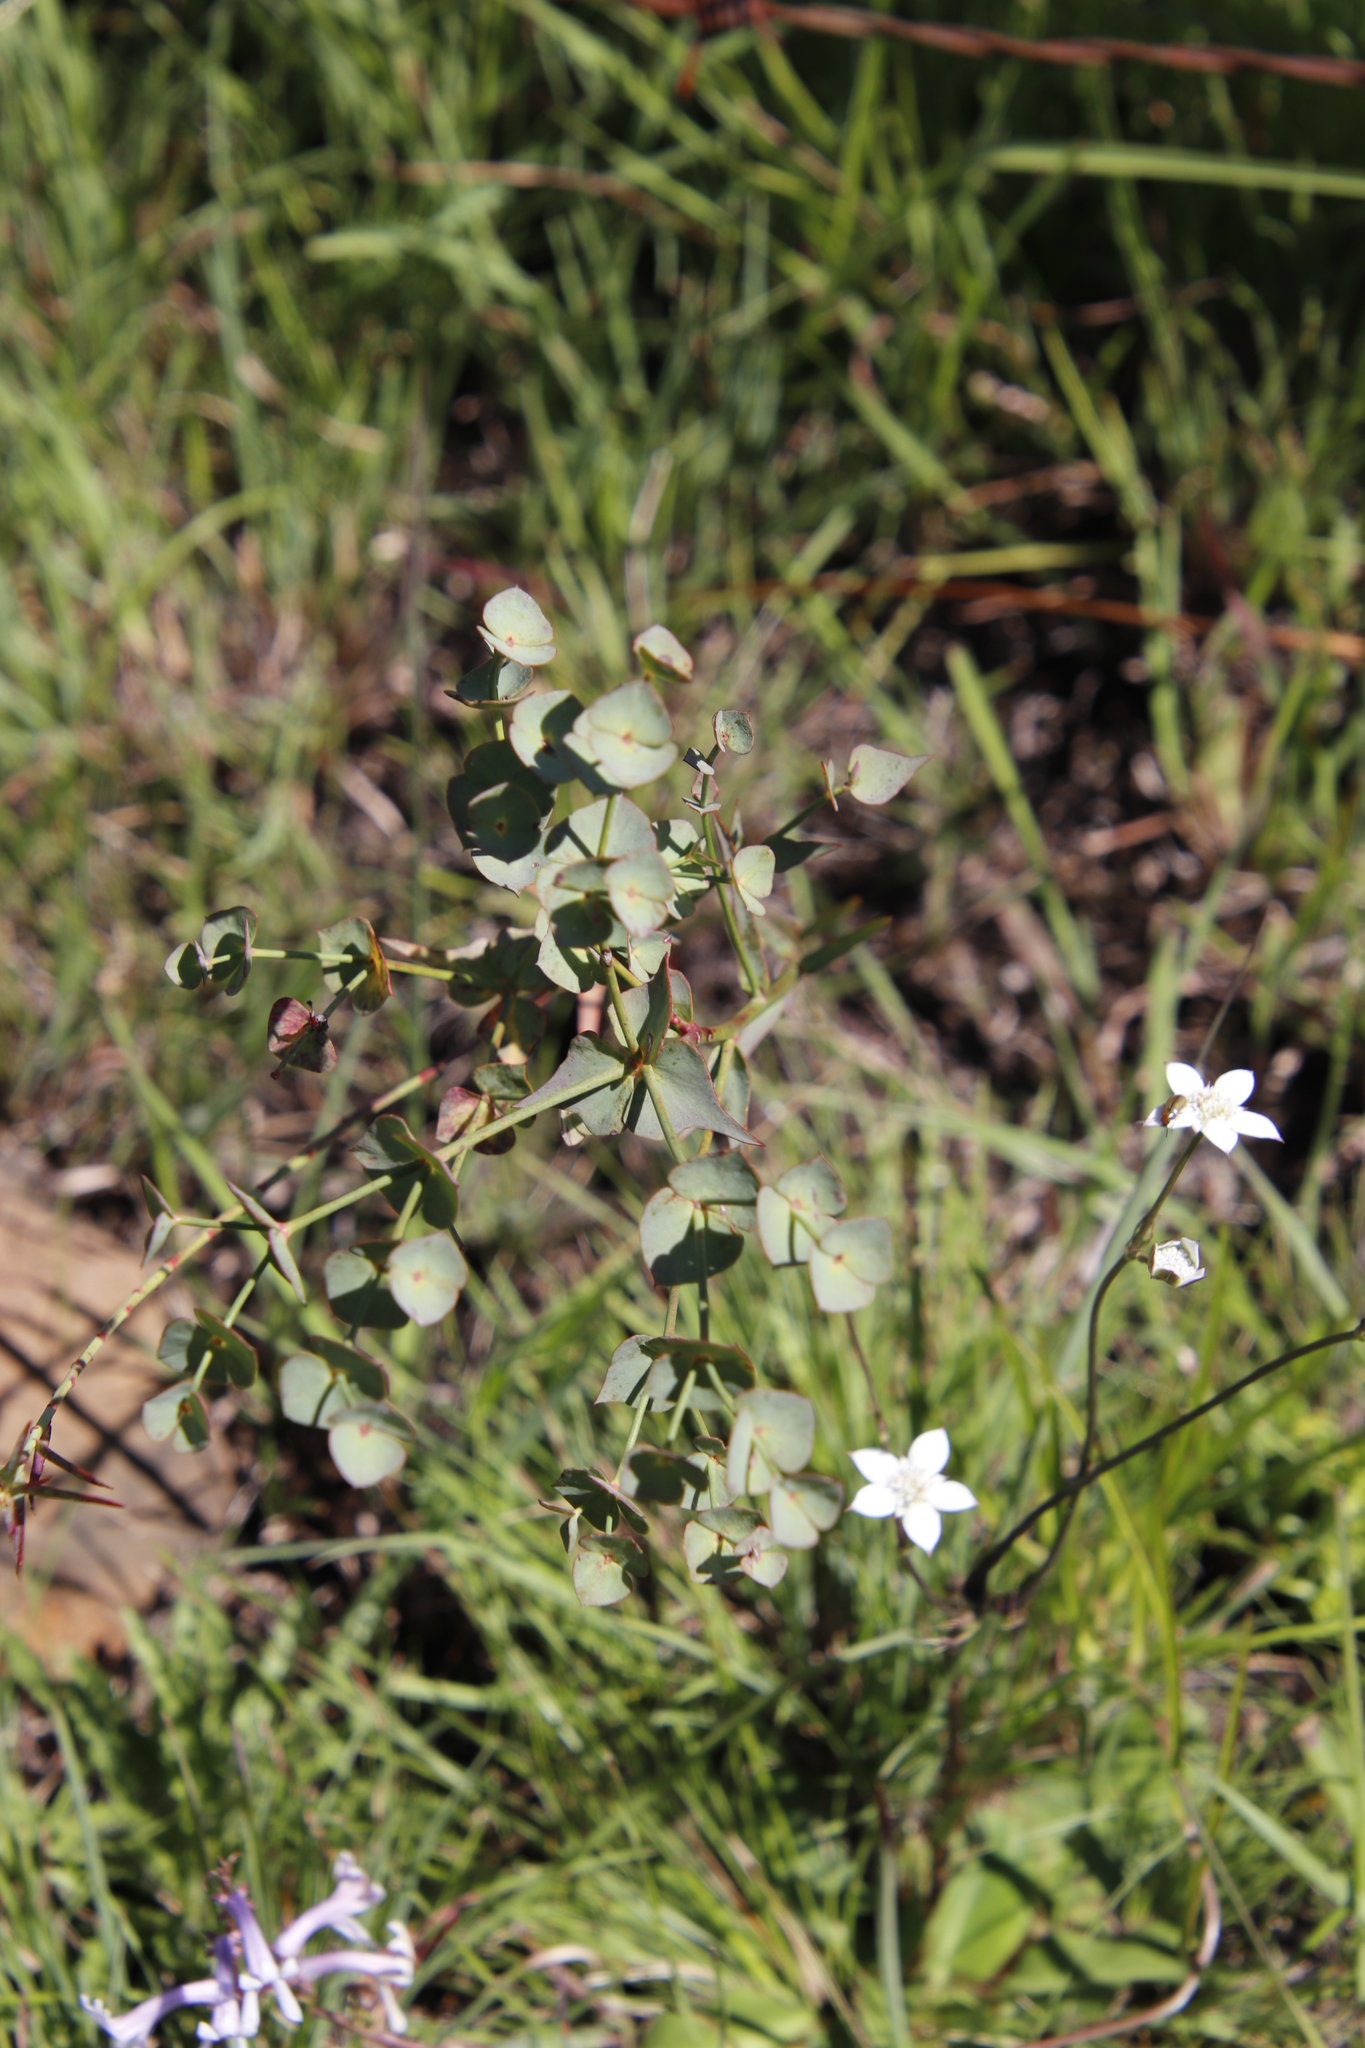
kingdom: Plantae
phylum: Tracheophyta
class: Magnoliopsida
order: Malpighiales
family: Euphorbiaceae
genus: Euphorbia
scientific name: Euphorbia striata
